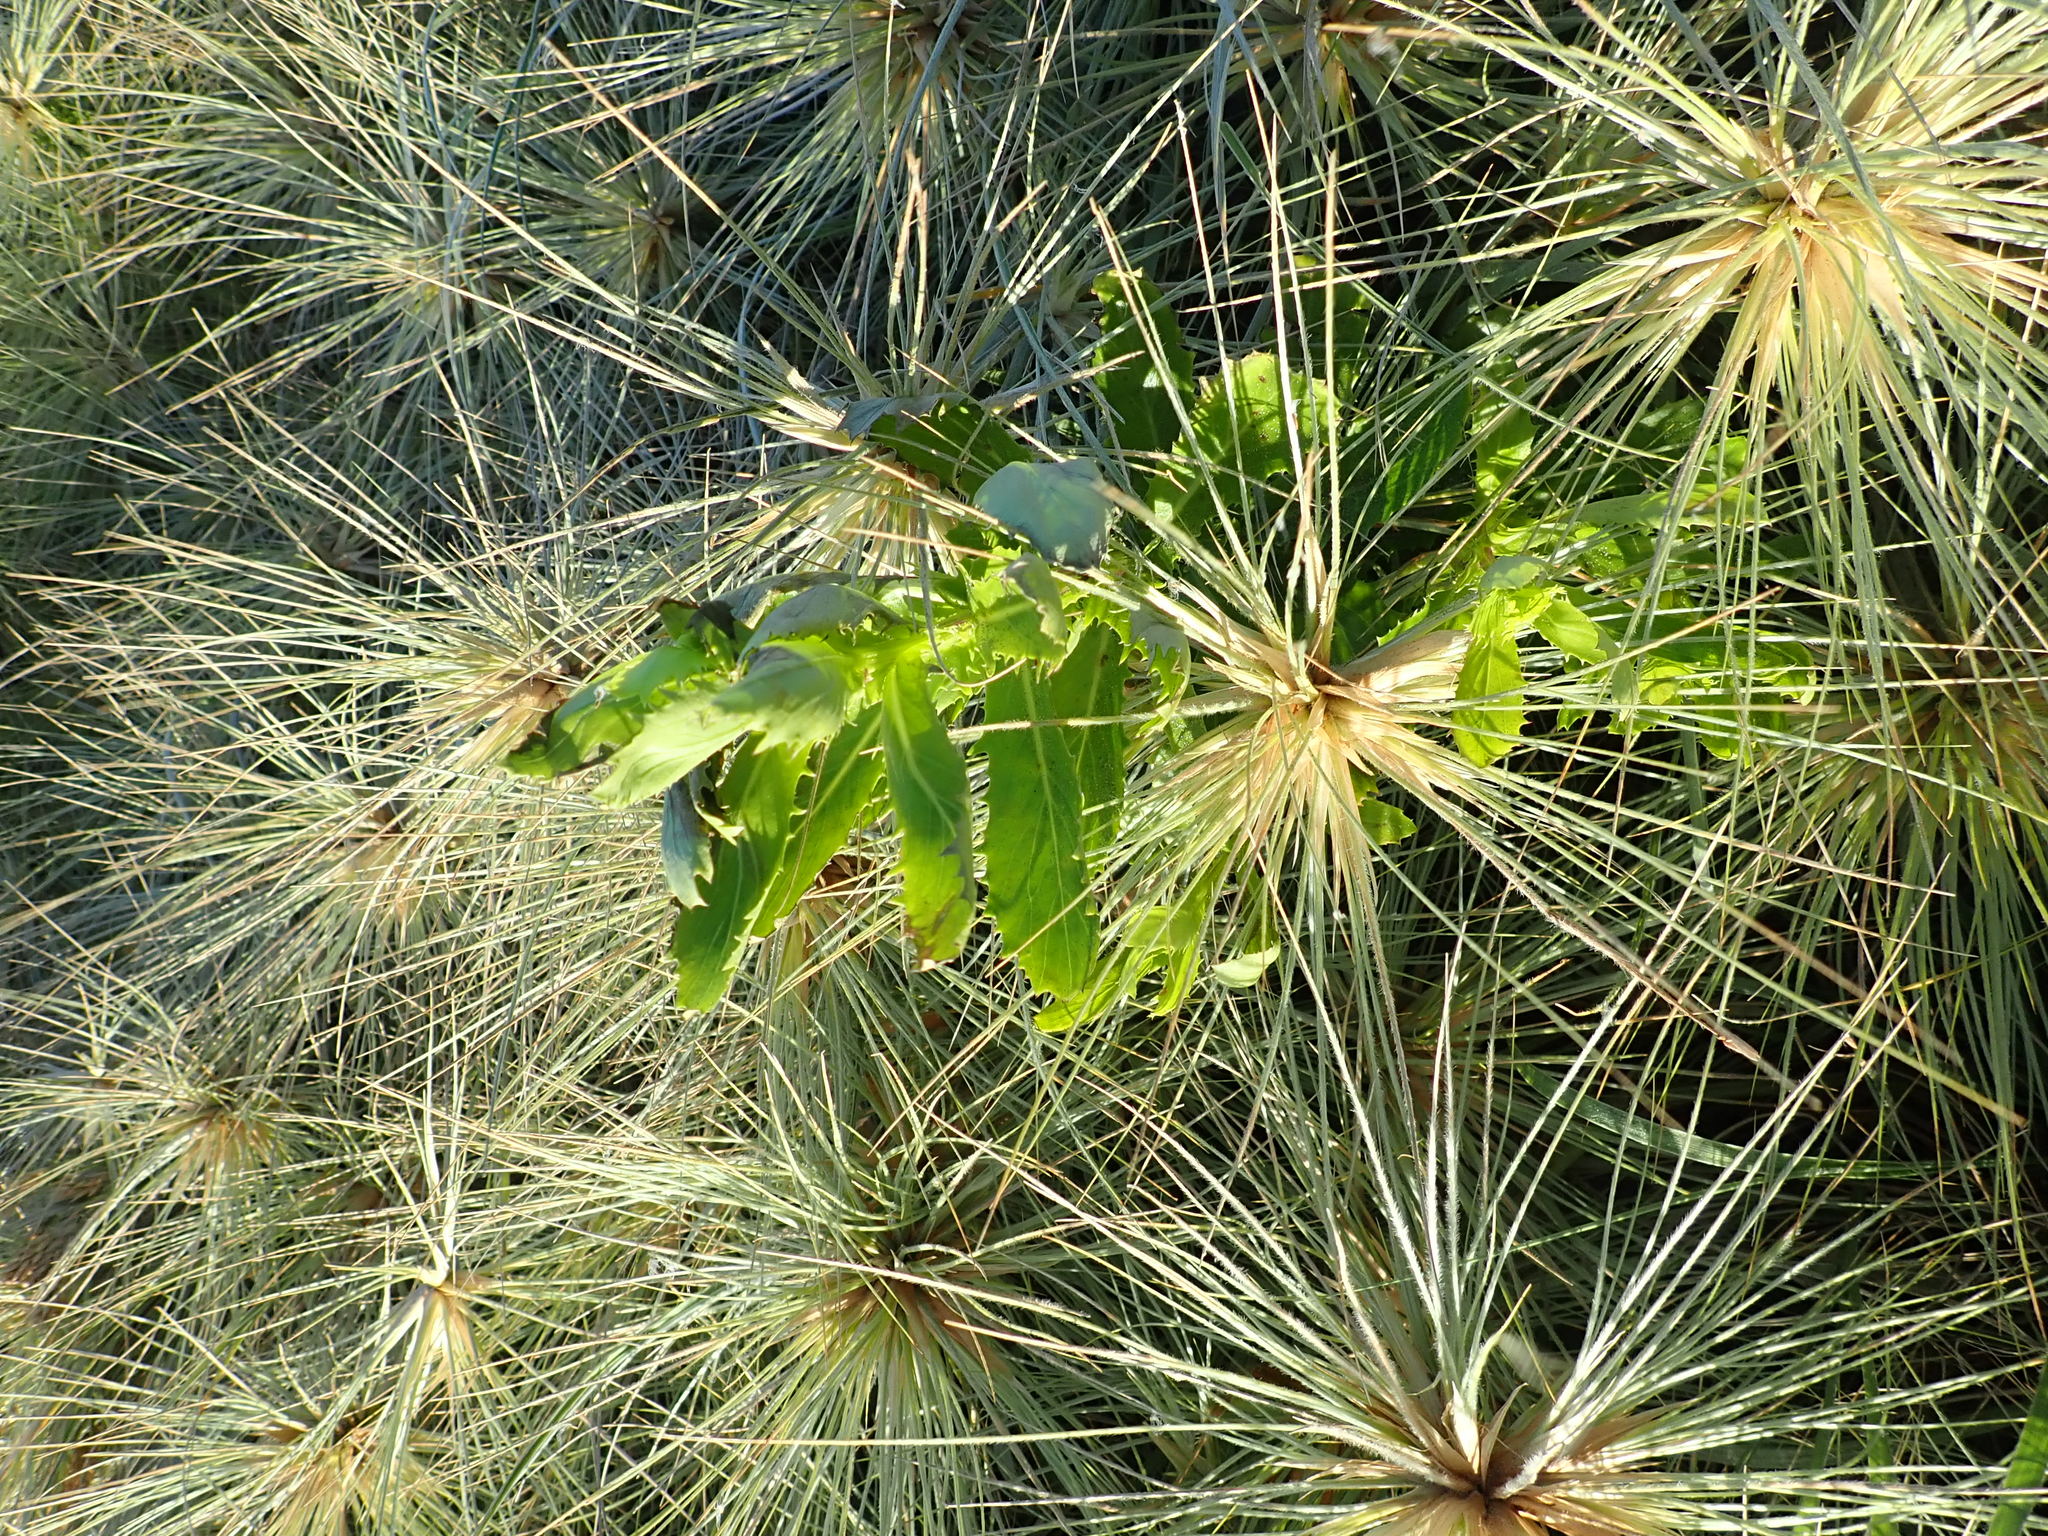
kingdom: Plantae
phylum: Tracheophyta
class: Magnoliopsida
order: Asterales
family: Asteraceae
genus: Senecio
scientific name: Senecio glastifolius
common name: Woad-leaved ragwort
